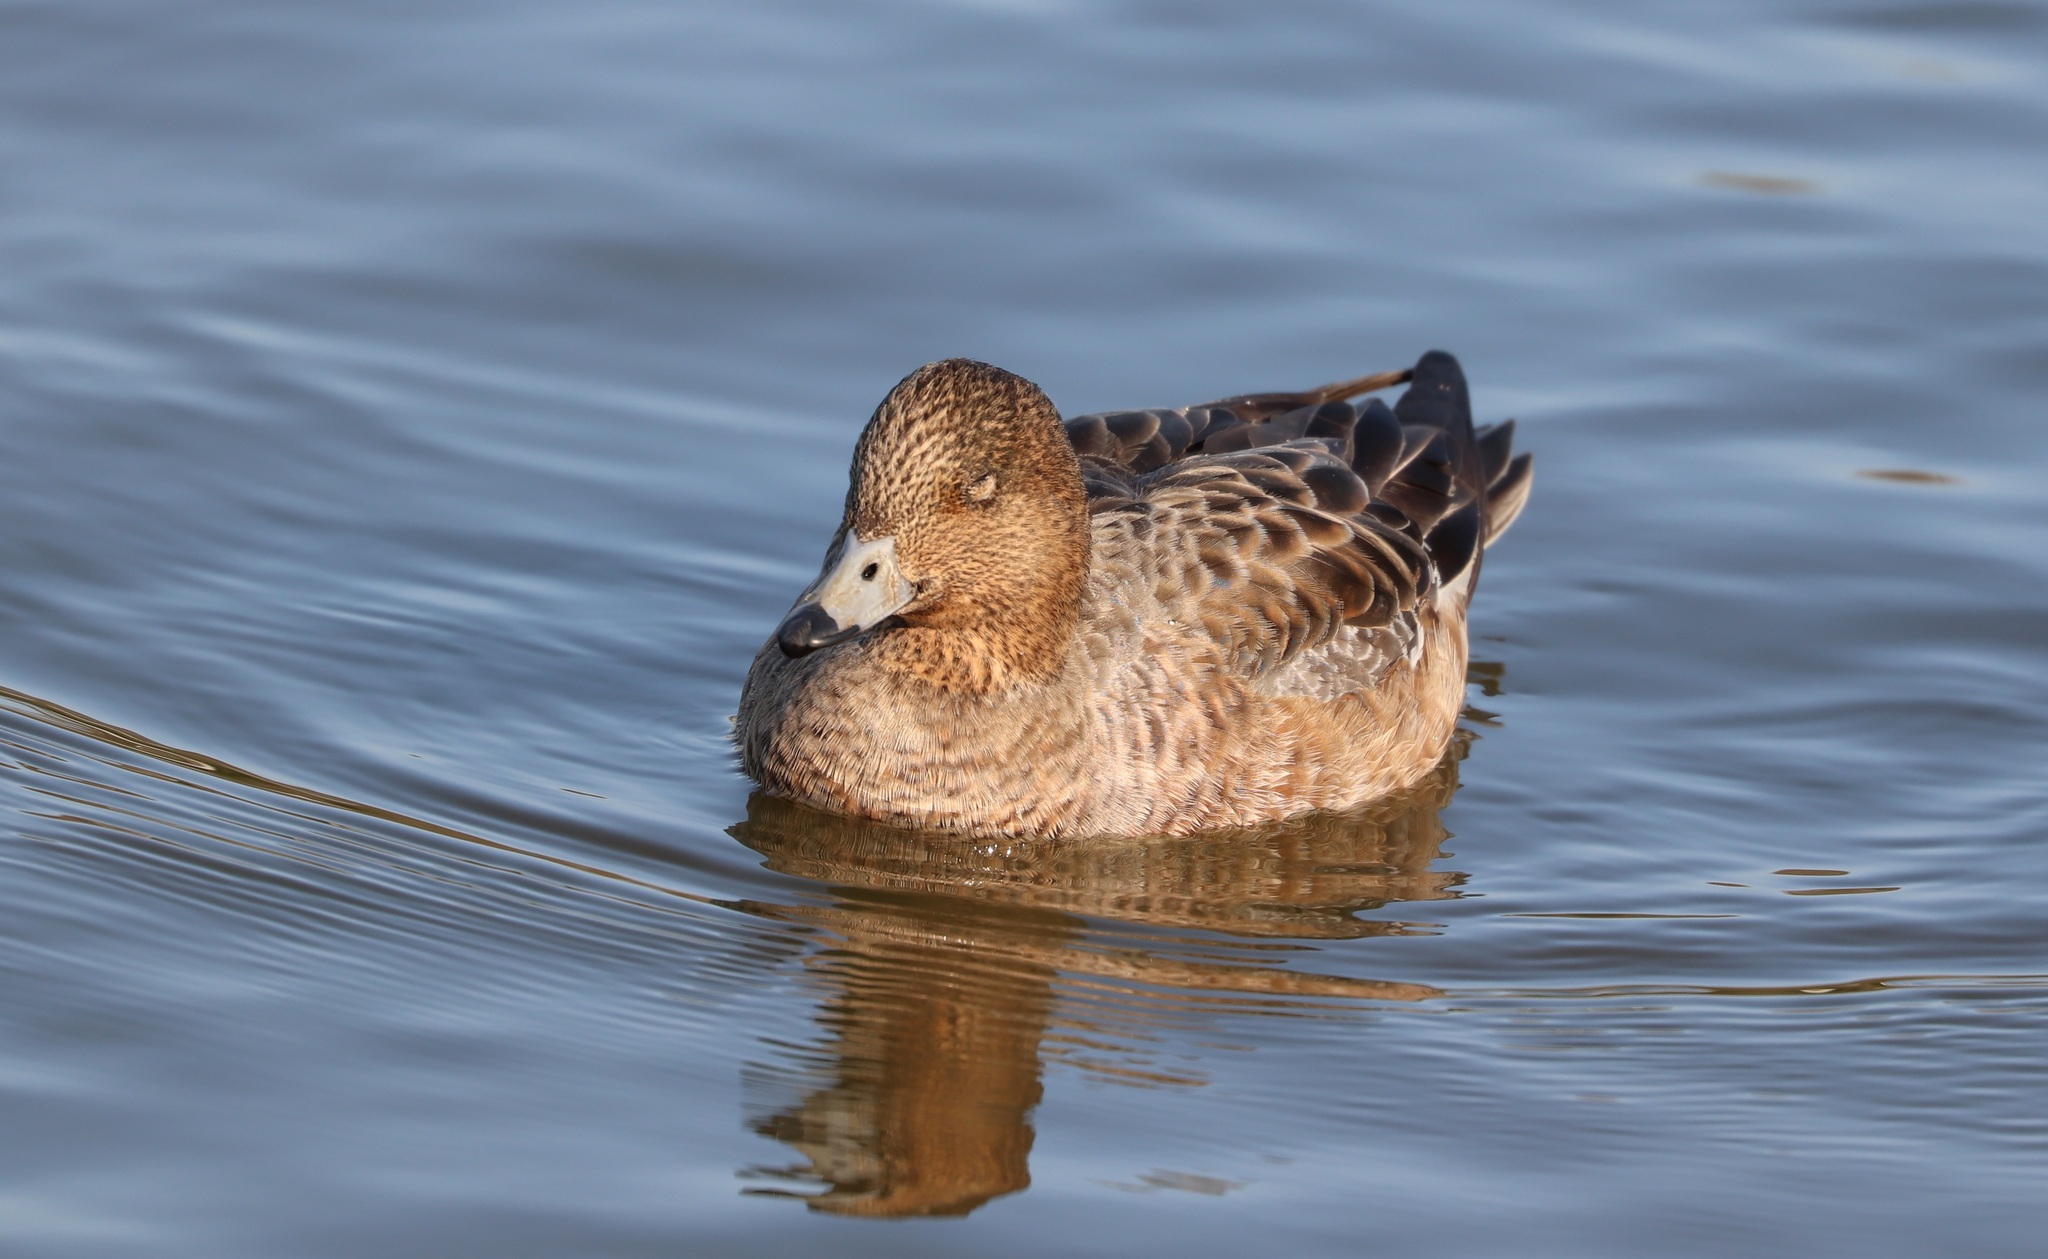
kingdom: Animalia
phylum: Chordata
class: Aves
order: Anseriformes
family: Anatidae
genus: Mareca
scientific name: Mareca penelope
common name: Eurasian wigeon
